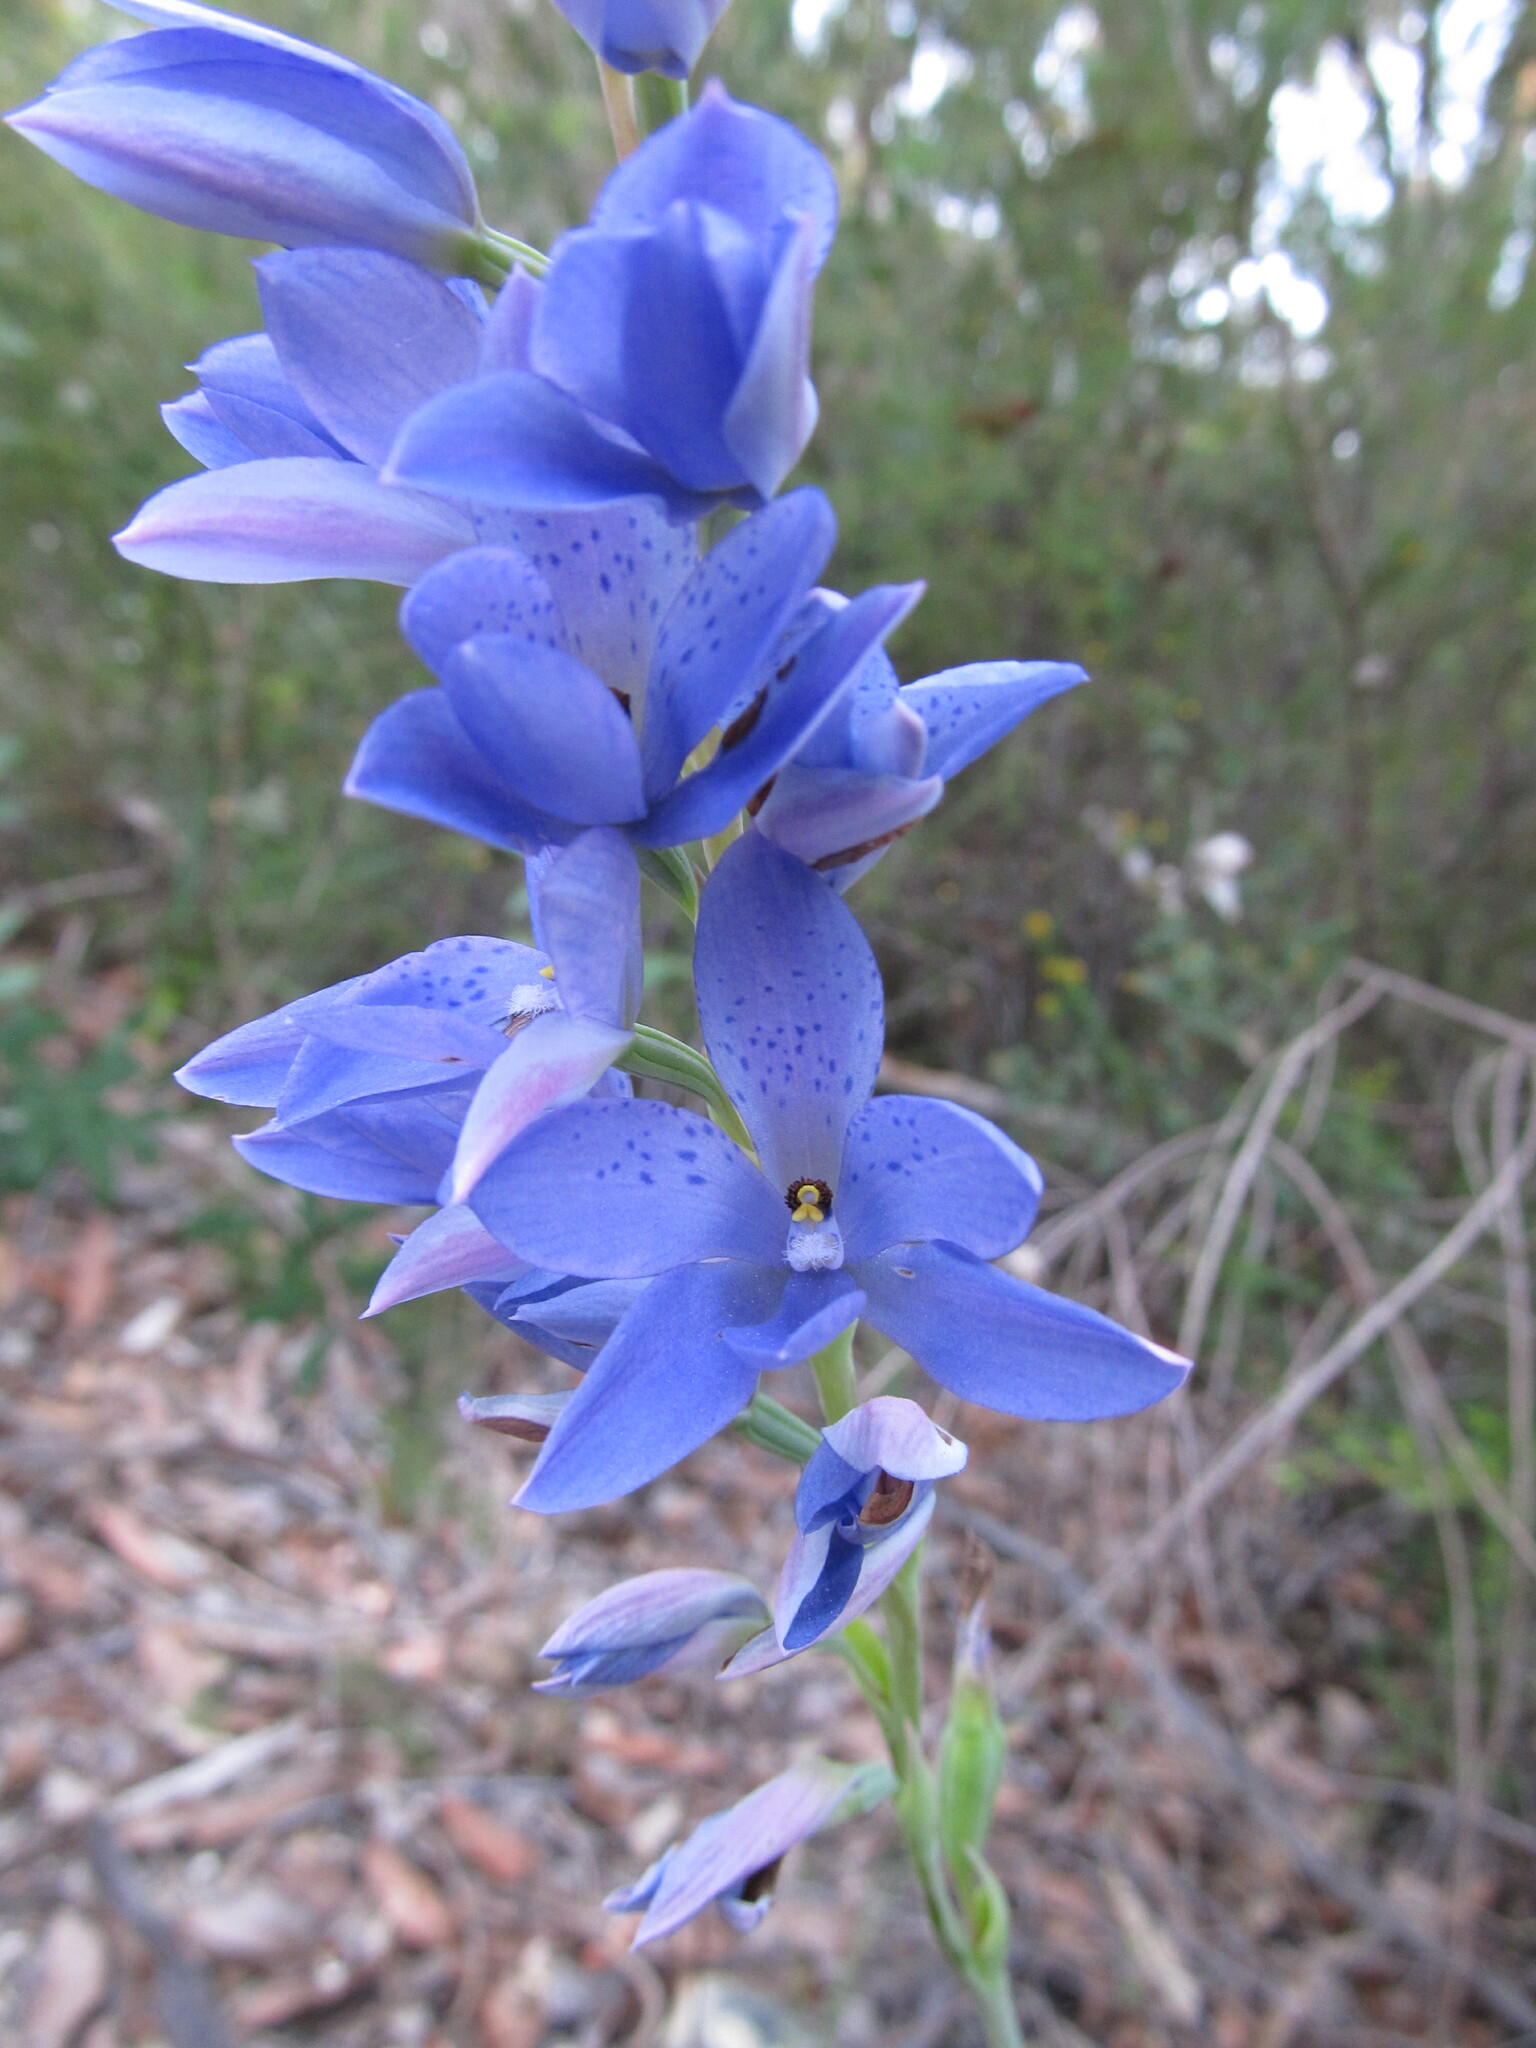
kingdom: Plantae
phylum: Tracheophyta
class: Liliopsida
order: Asparagales
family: Orchidaceae
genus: Thelymitra
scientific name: Thelymitra ixioides
